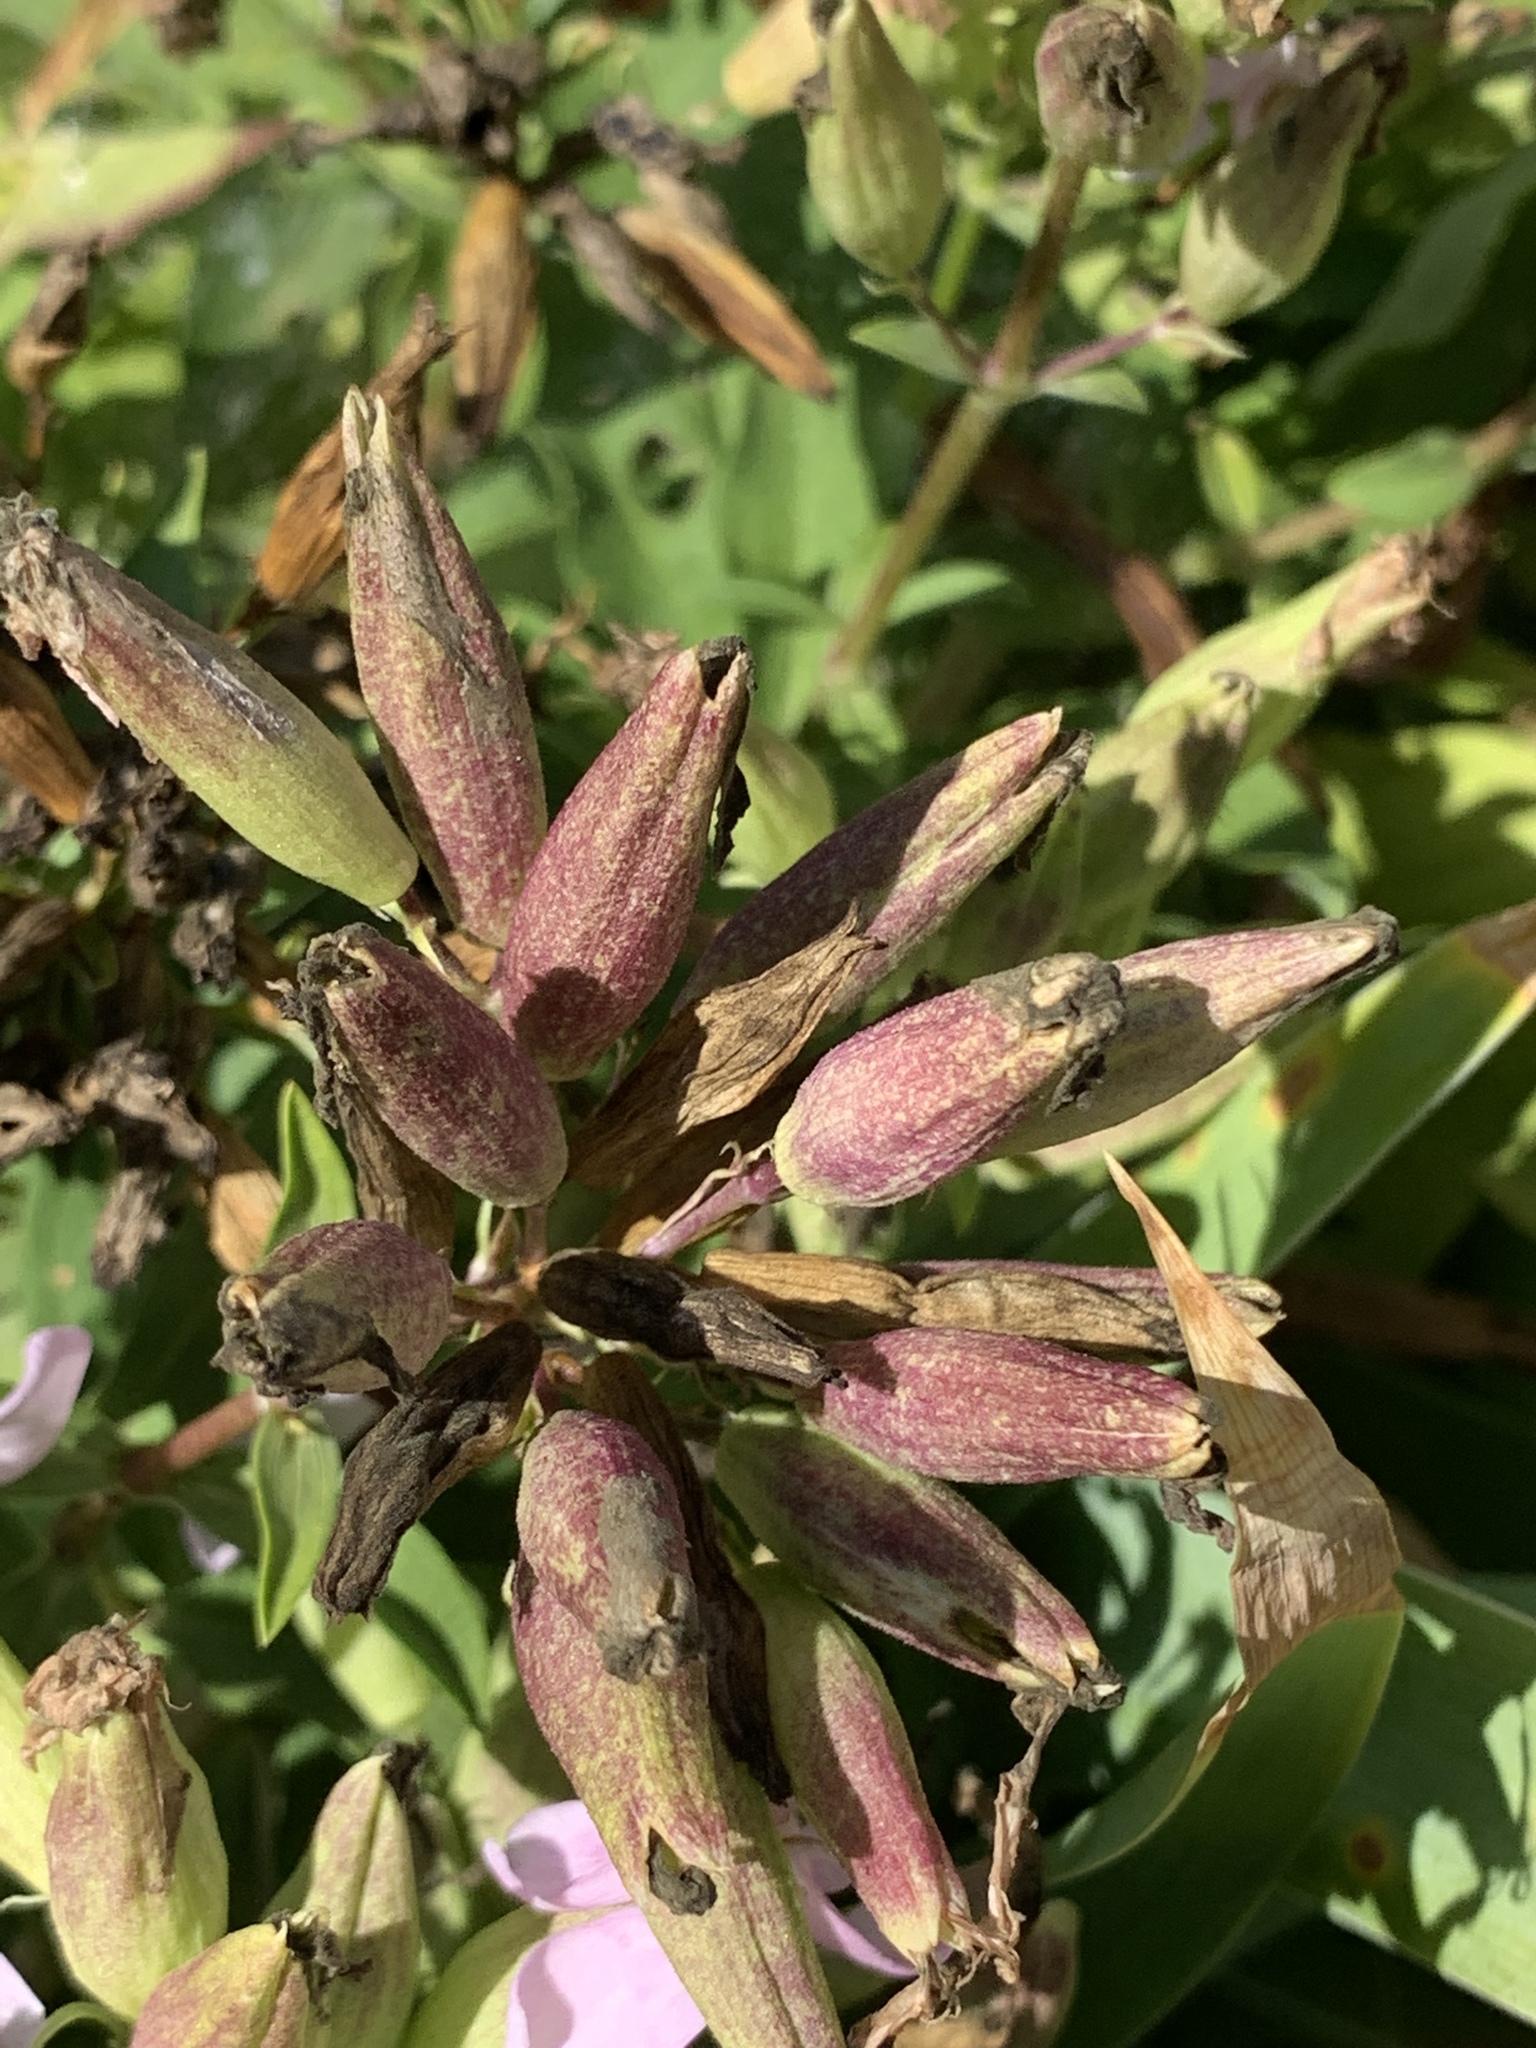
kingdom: Plantae
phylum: Tracheophyta
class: Magnoliopsida
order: Caryophyllales
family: Caryophyllaceae
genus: Saponaria
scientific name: Saponaria officinalis
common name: Soapwort
